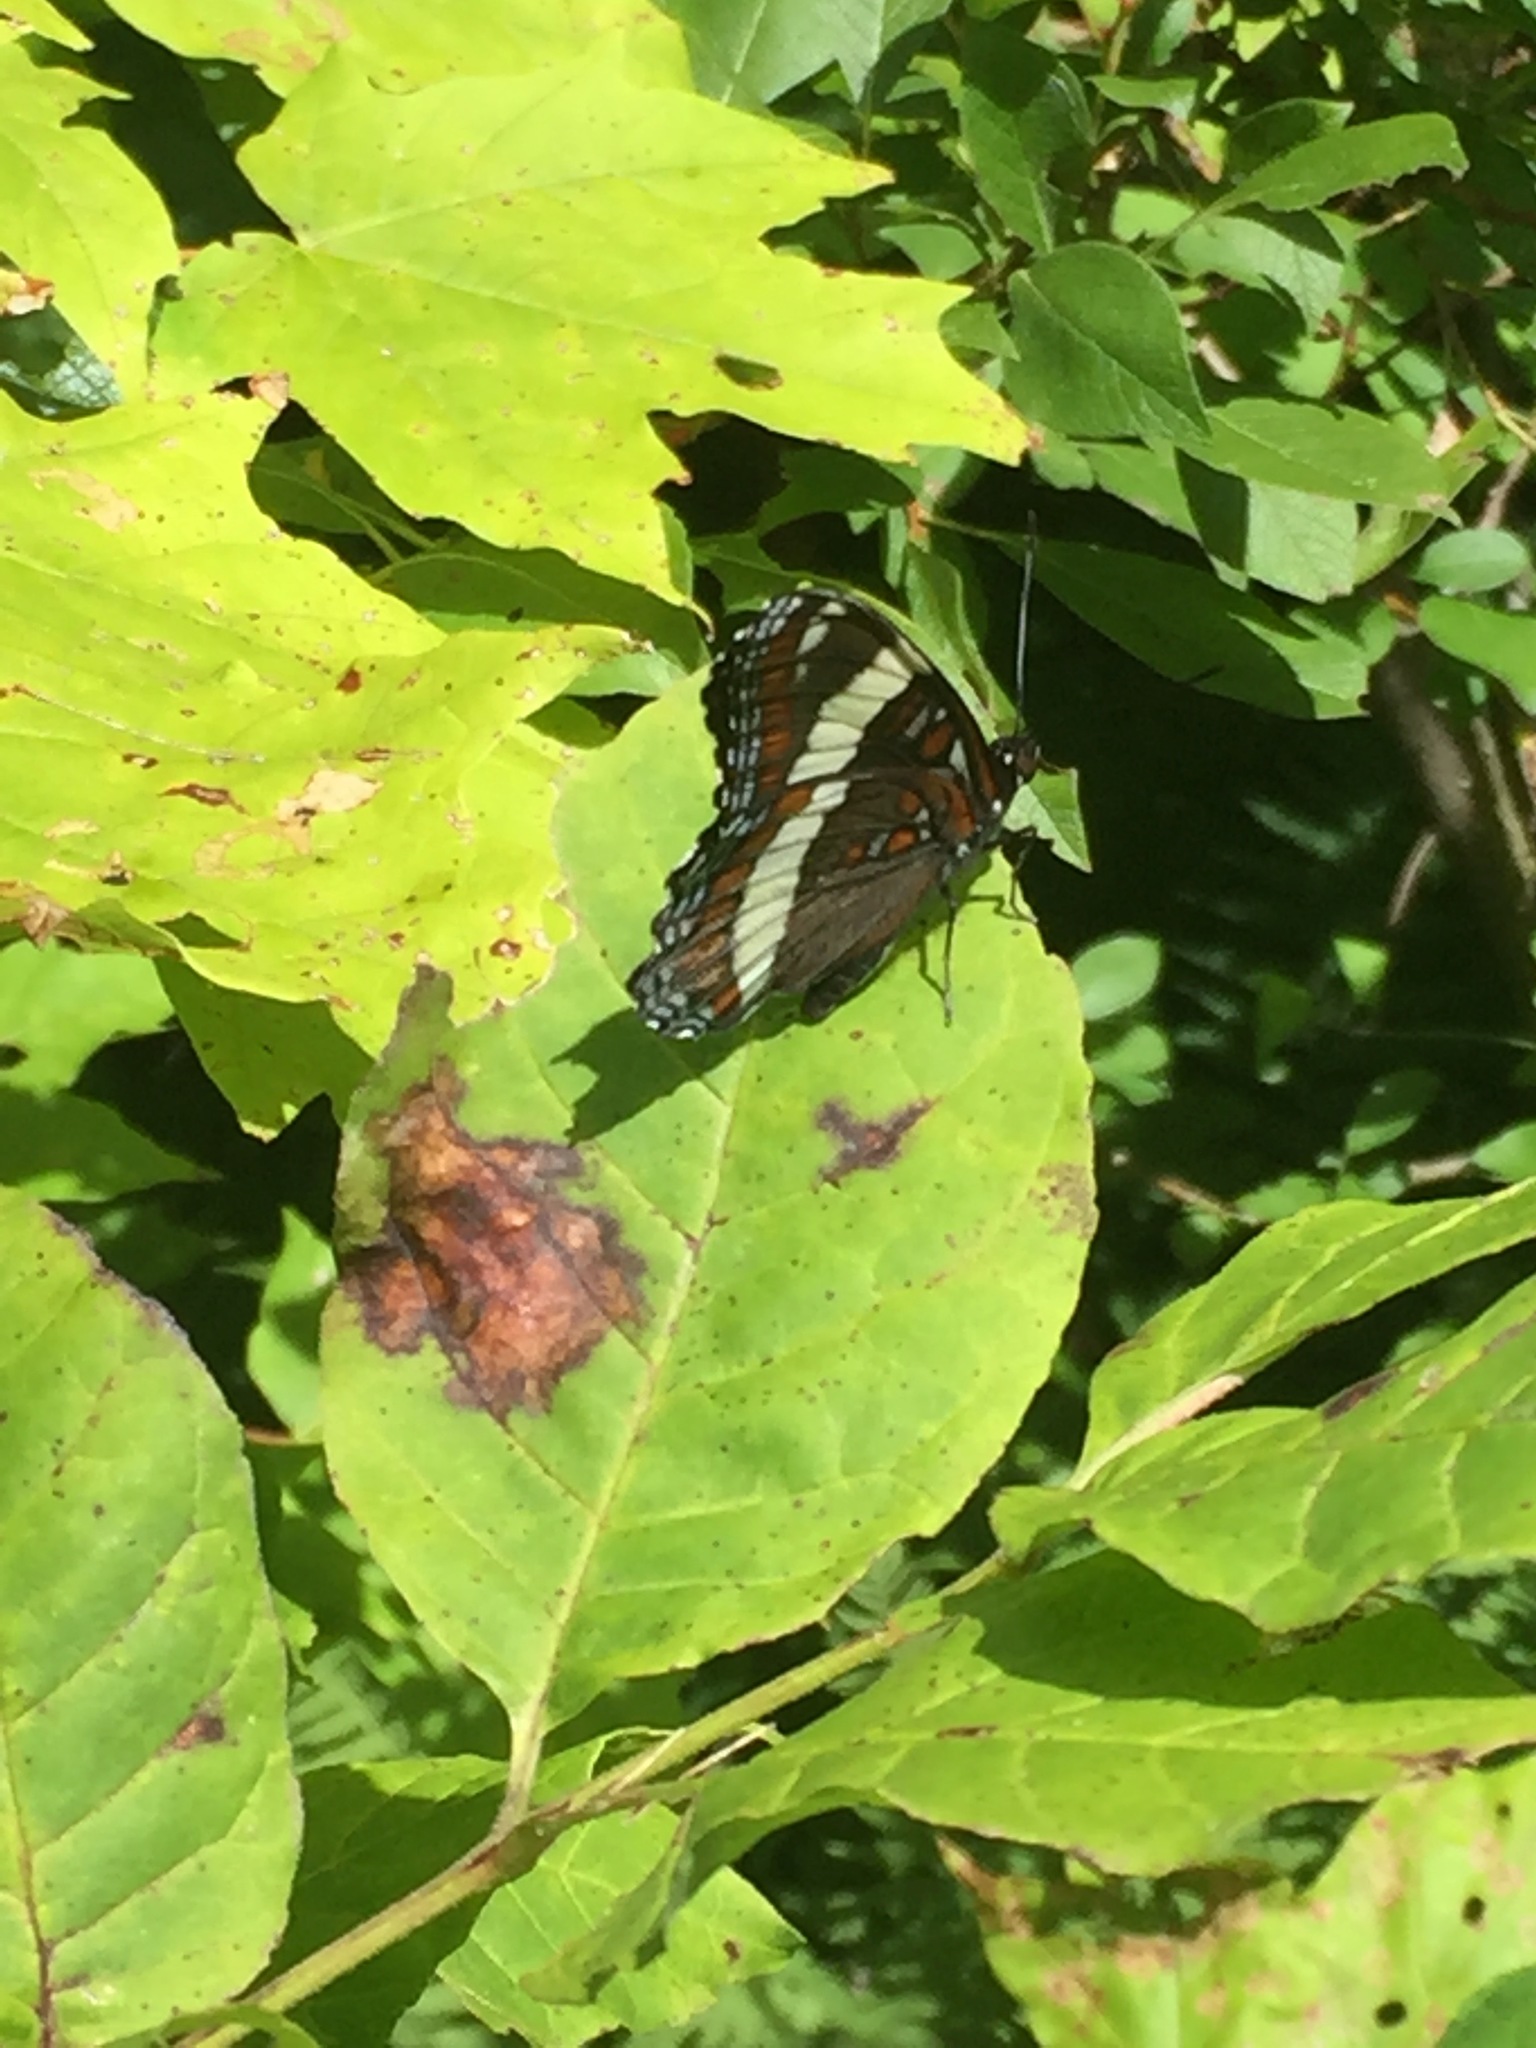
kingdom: Animalia
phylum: Arthropoda
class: Insecta
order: Lepidoptera
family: Nymphalidae
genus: Limenitis
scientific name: Limenitis arthemis
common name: Red-spotted admiral
